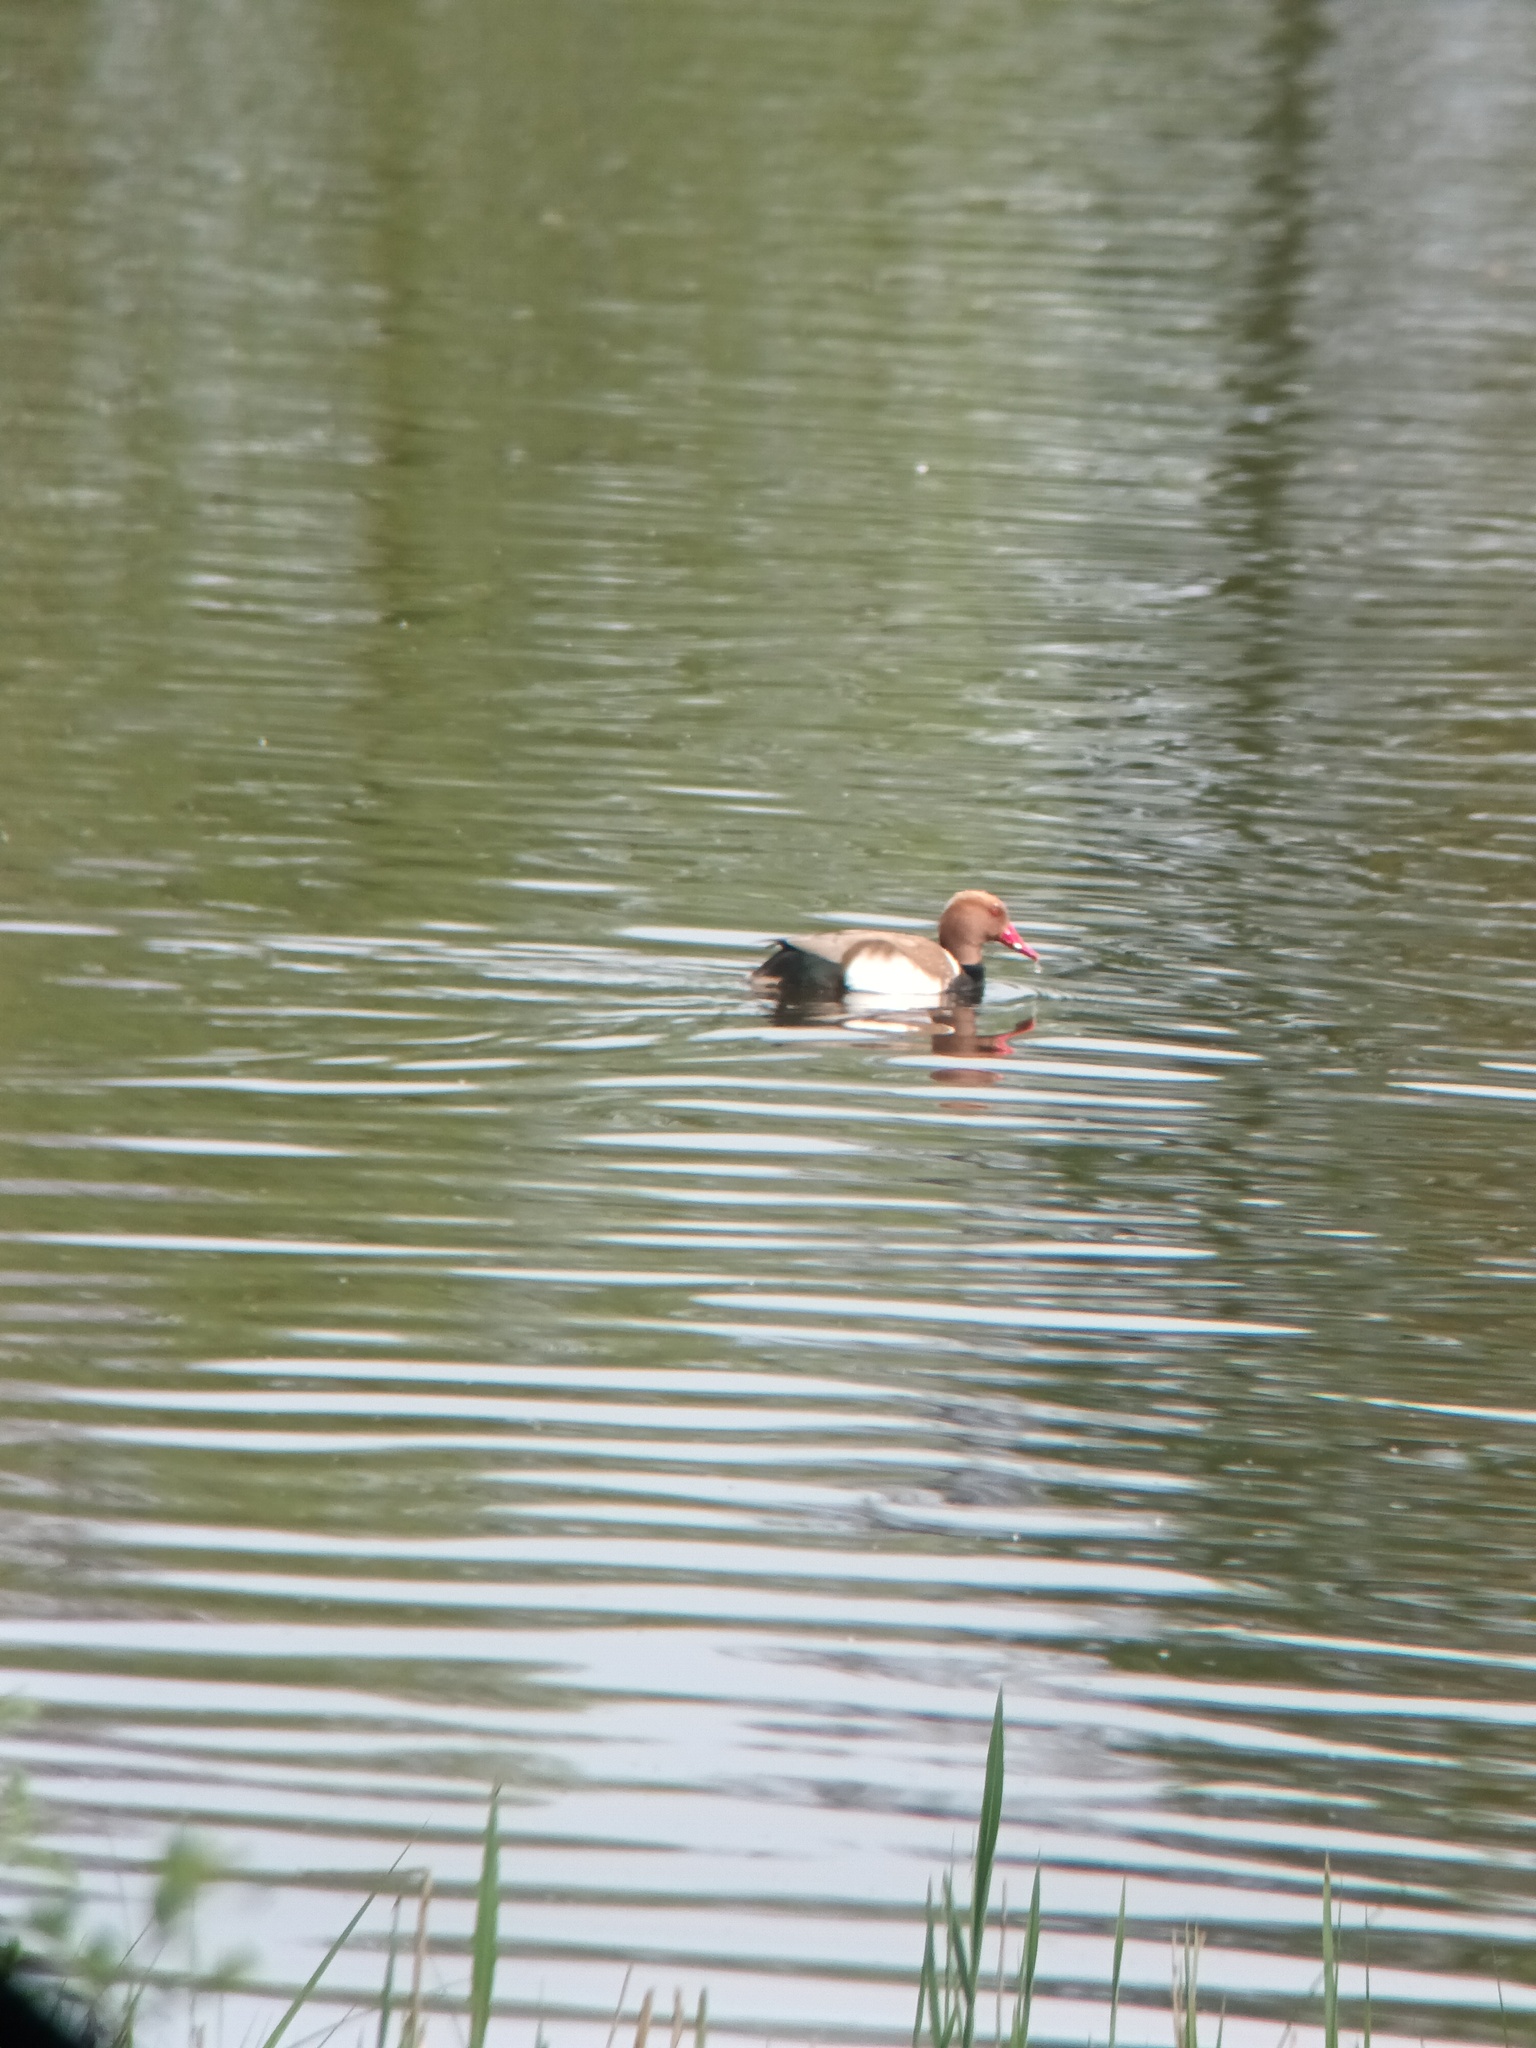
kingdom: Animalia
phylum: Chordata
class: Aves
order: Anseriformes
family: Anatidae
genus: Netta
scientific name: Netta rufina
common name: Red-crested pochard
